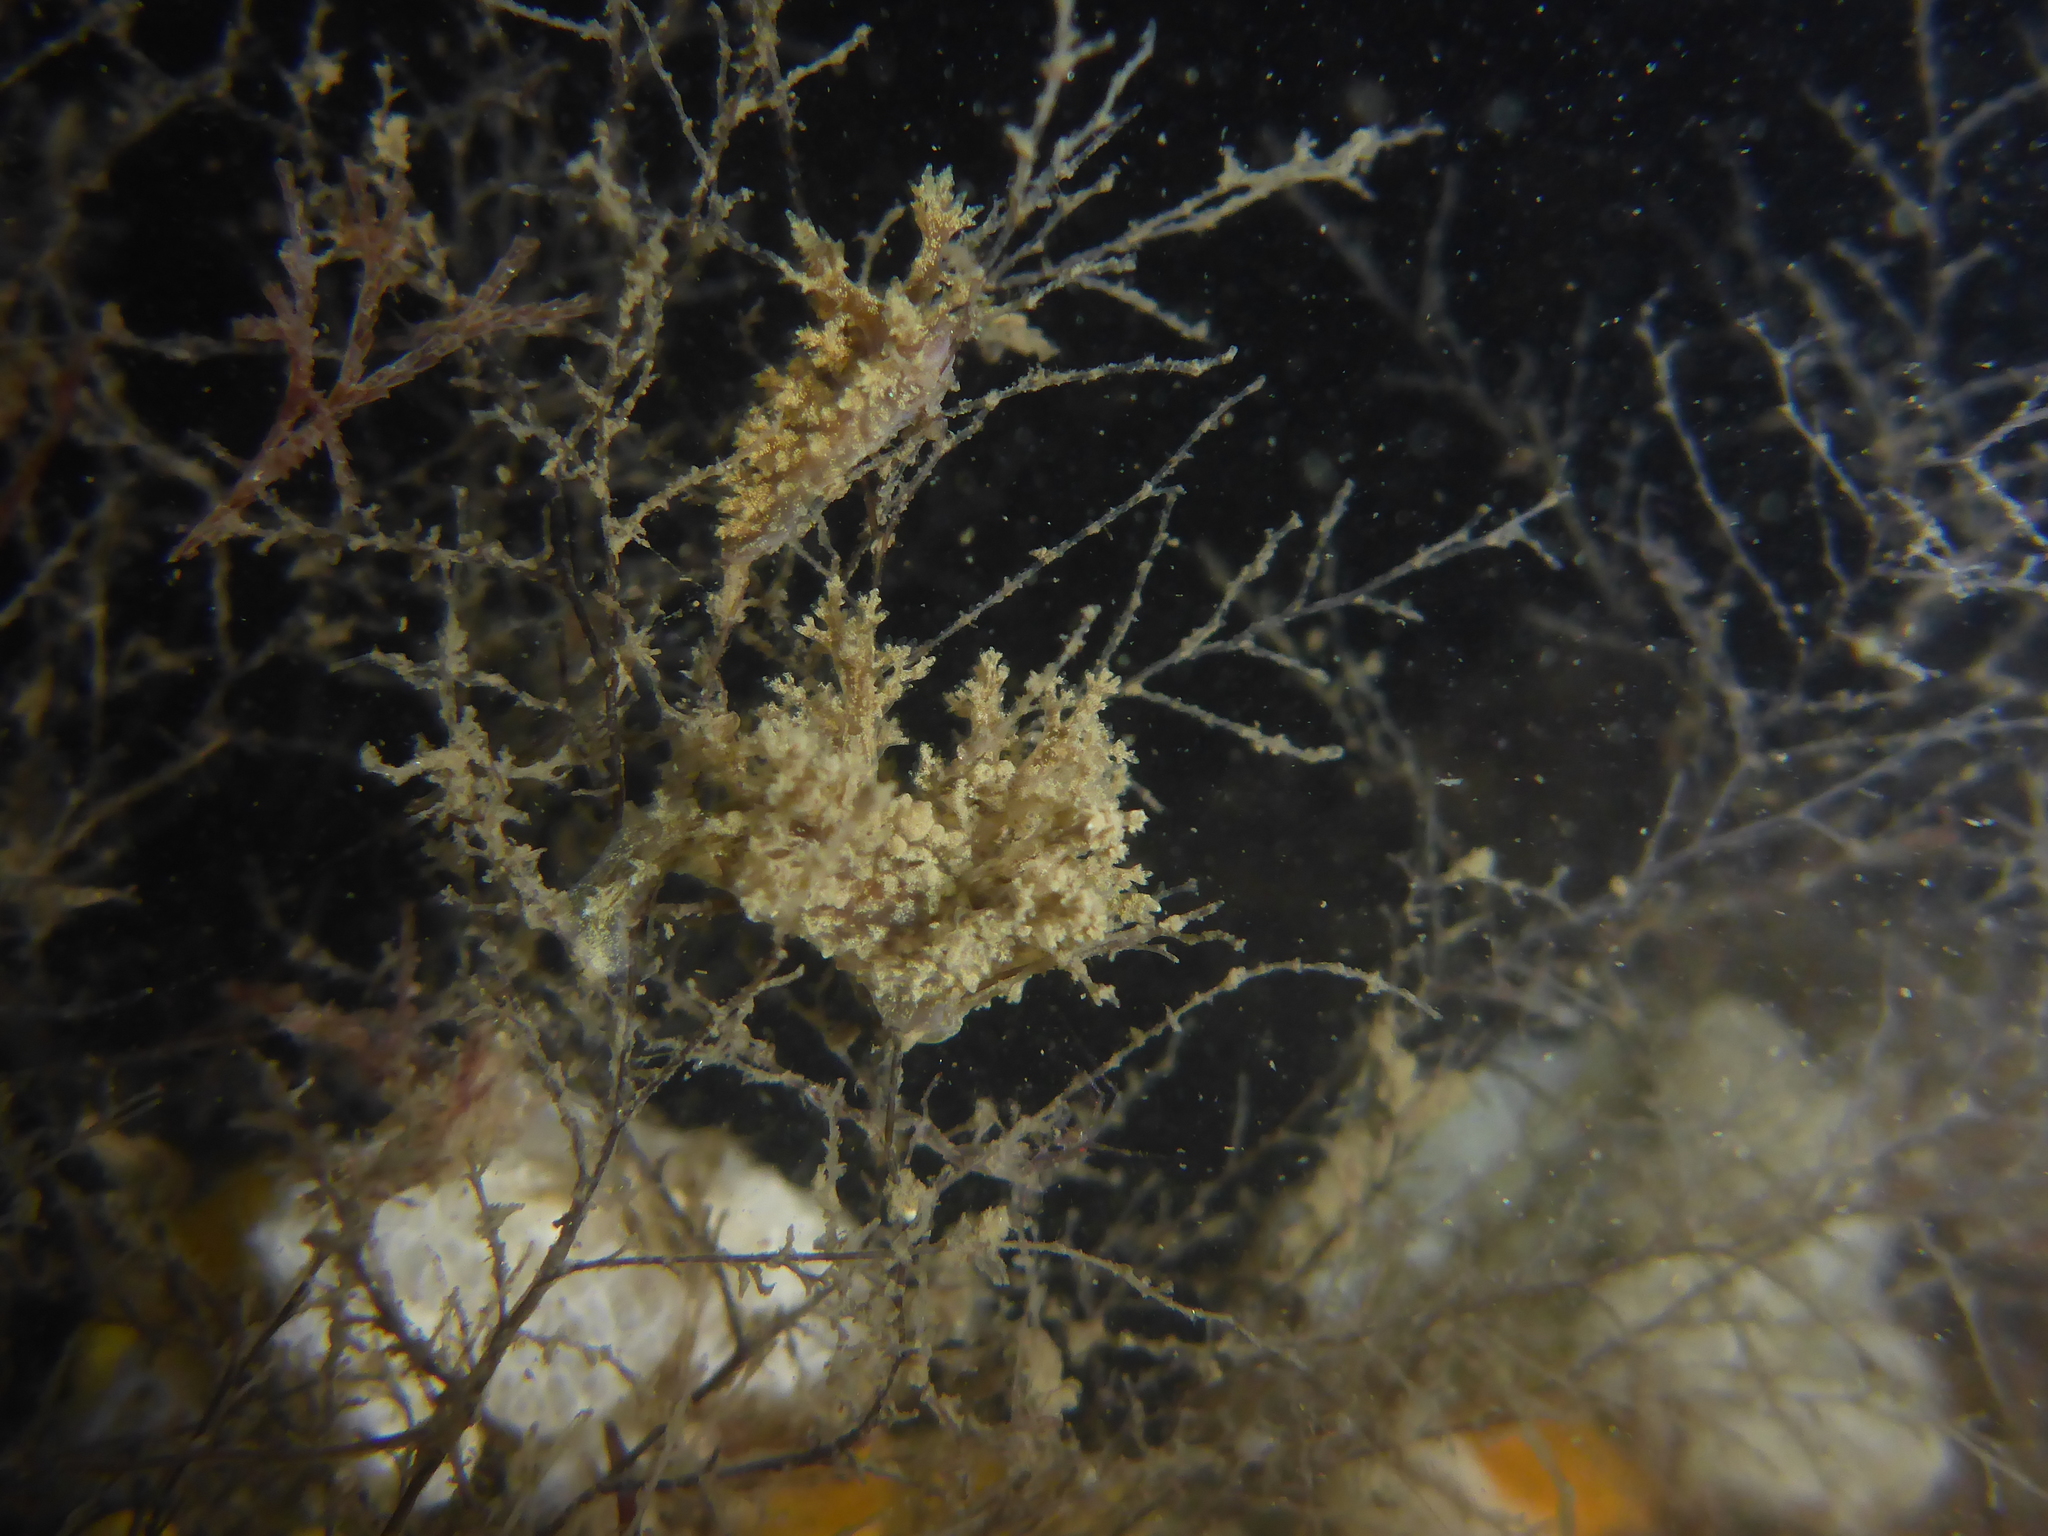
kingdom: Animalia
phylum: Mollusca
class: Gastropoda
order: Nudibranchia
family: Dendronotidae
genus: Dendronotus
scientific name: Dendronotus venustus
